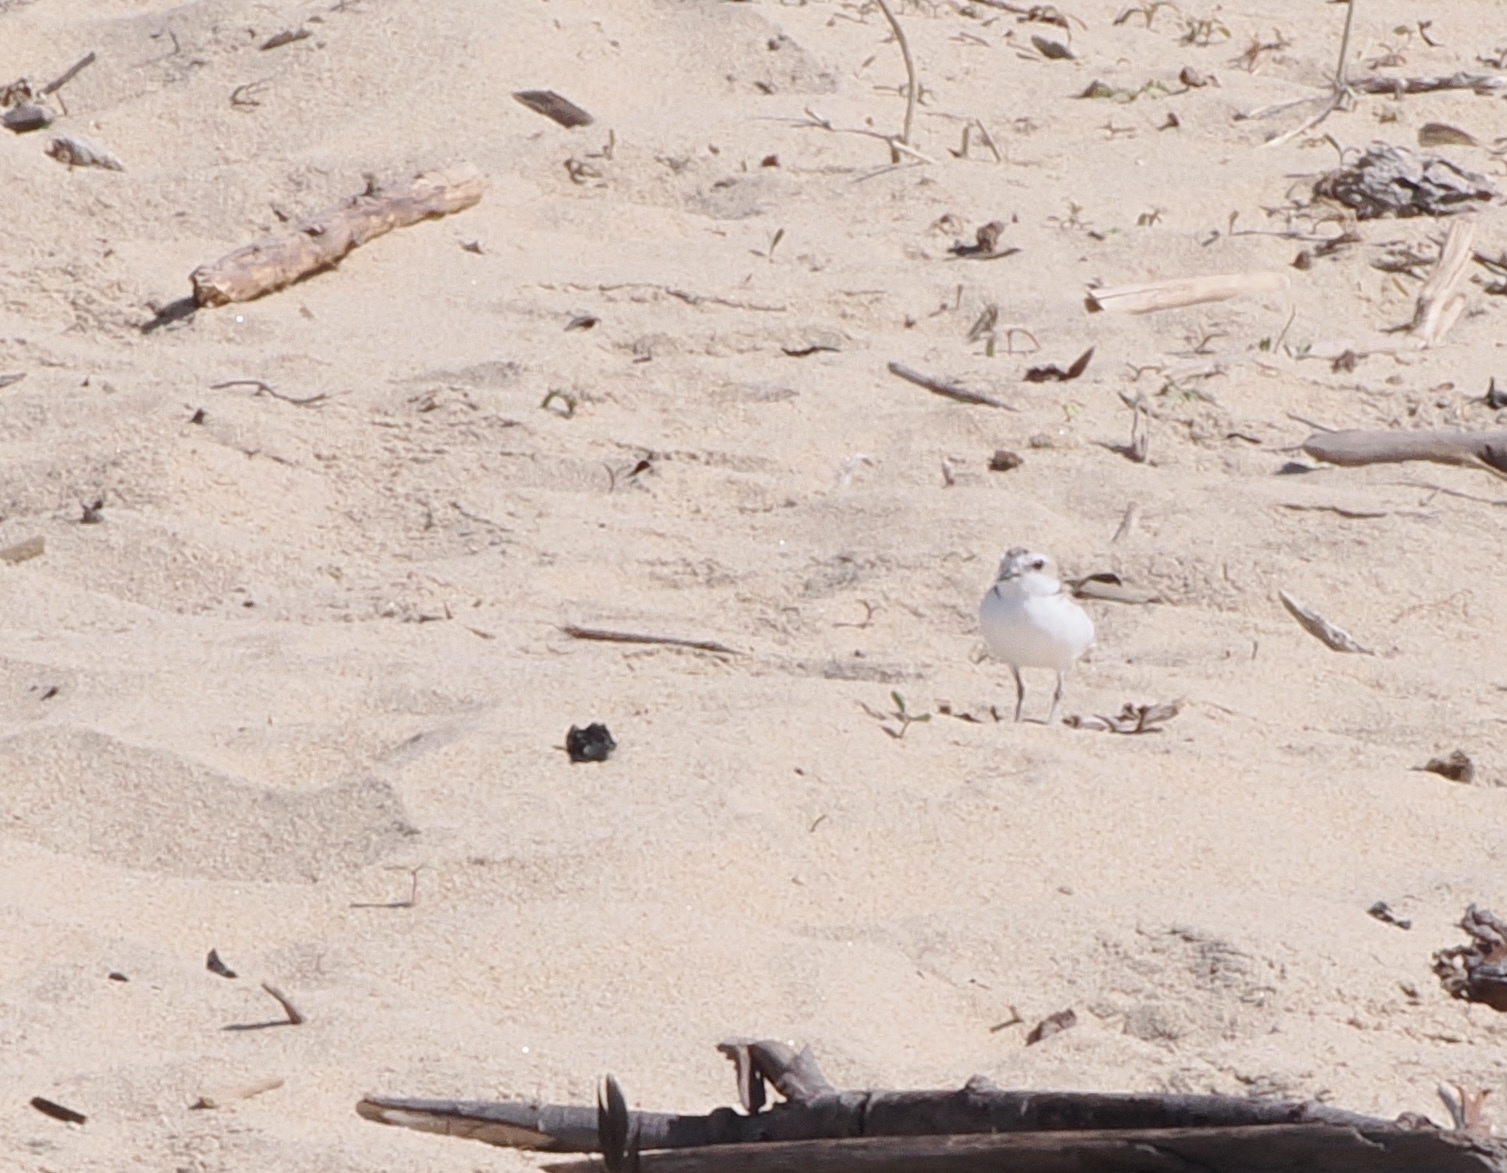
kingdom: Animalia
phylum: Chordata
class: Aves
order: Charadriiformes
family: Charadriidae
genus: Anarhynchus
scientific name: Anarhynchus
